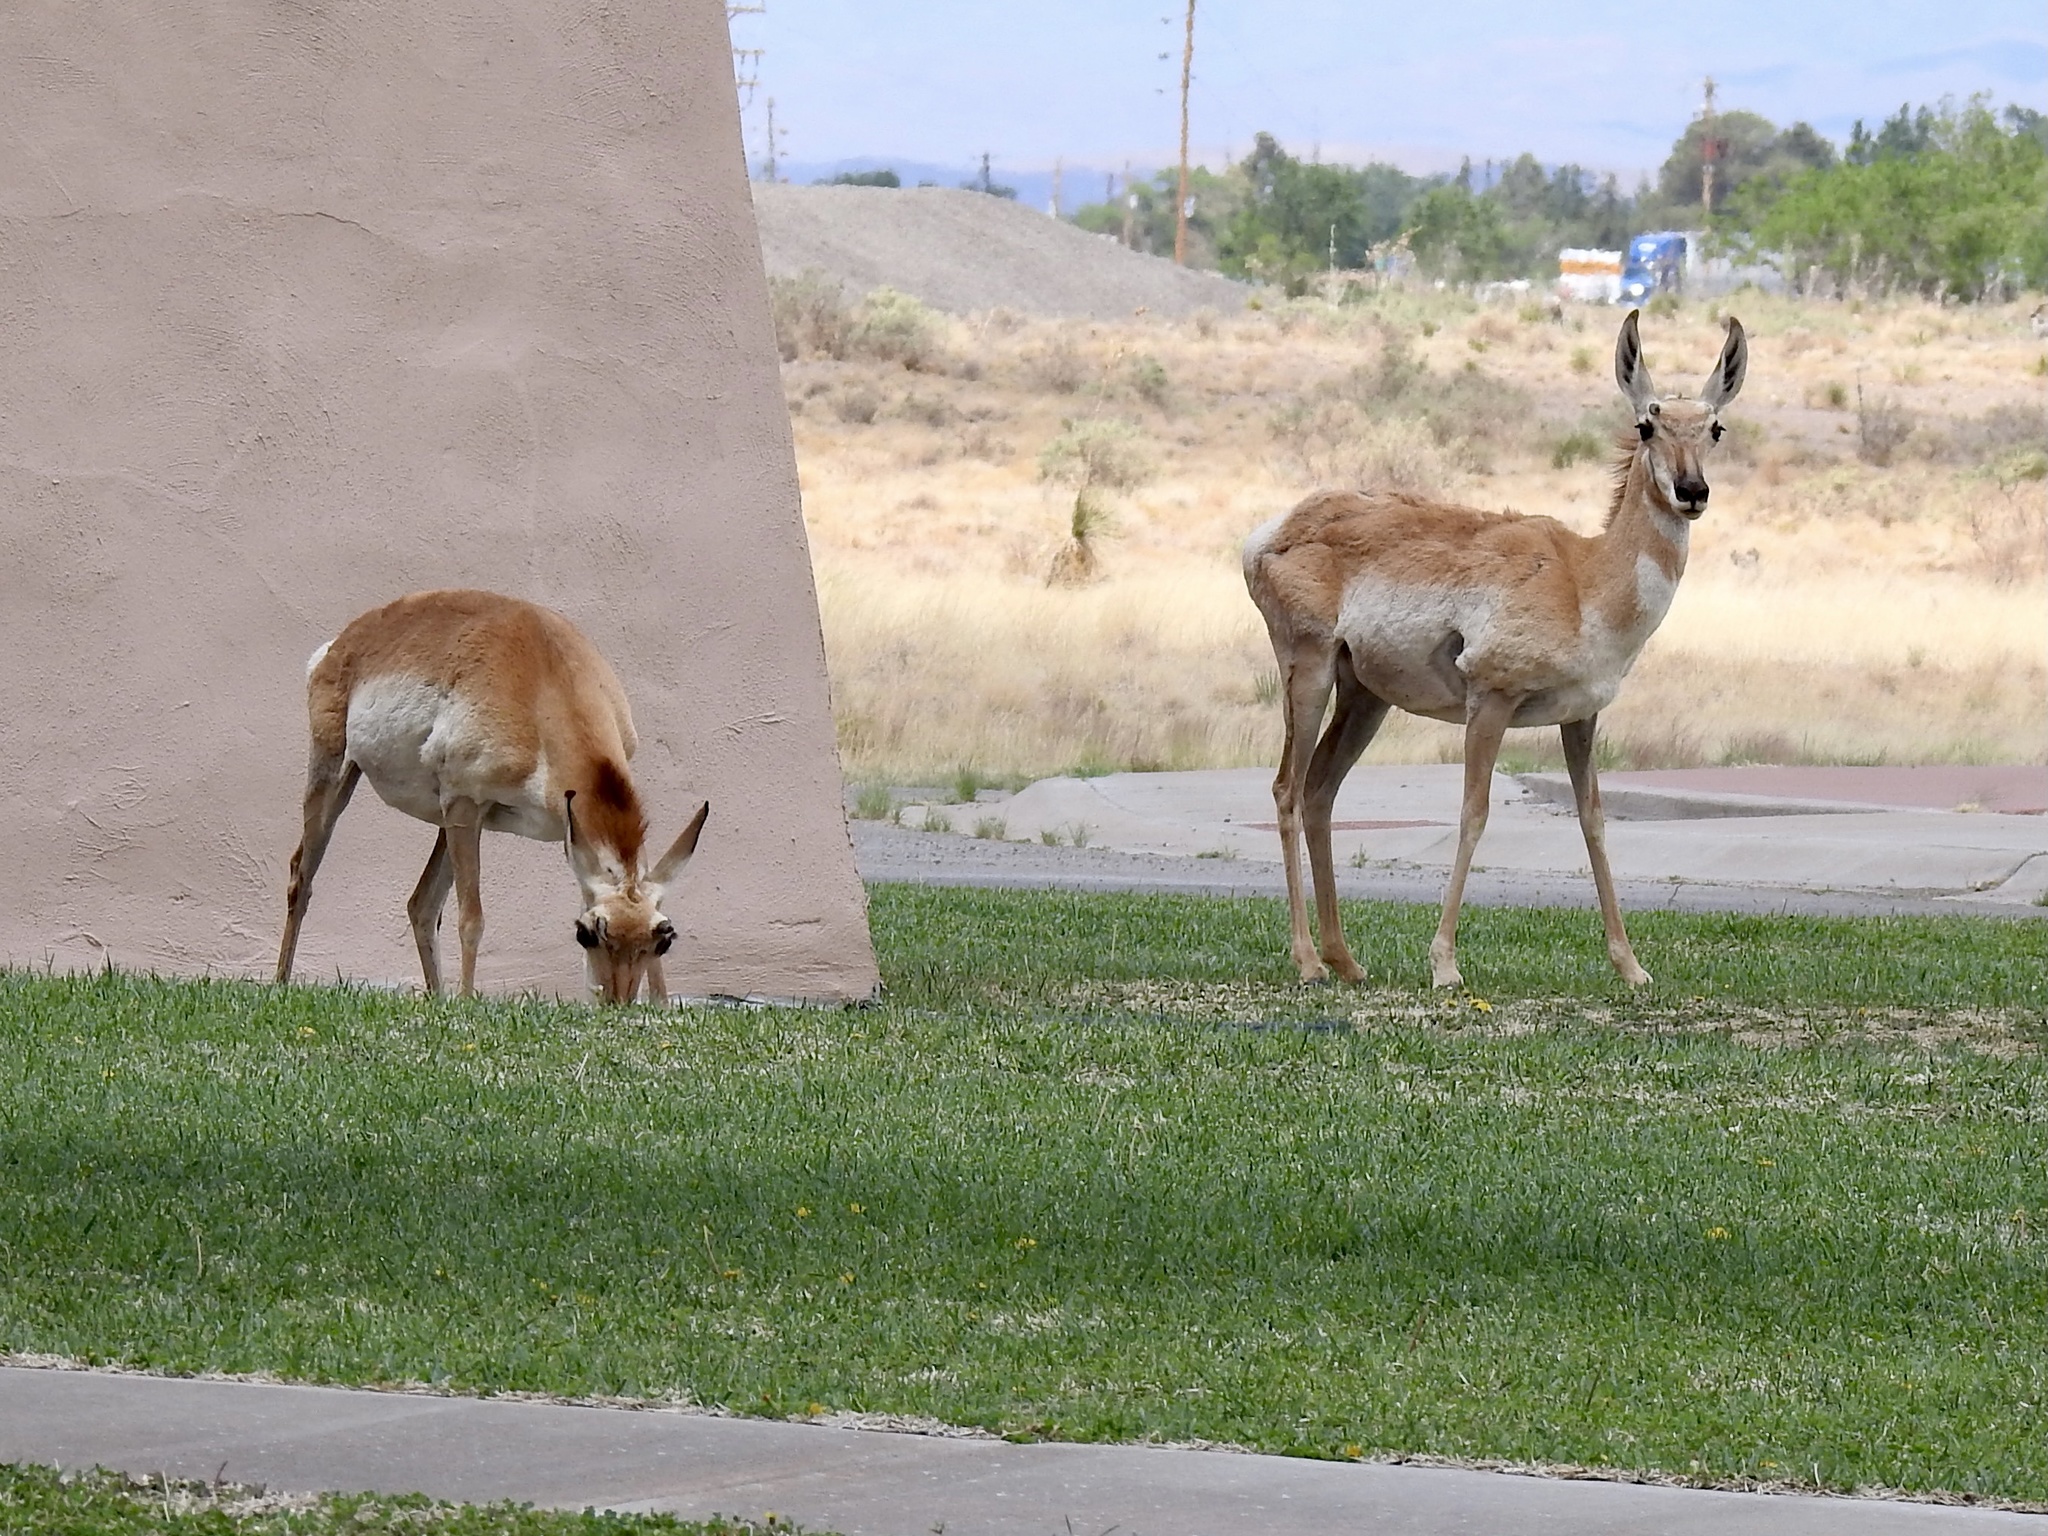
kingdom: Animalia
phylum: Chordata
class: Mammalia
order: Artiodactyla
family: Antilocapridae
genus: Antilocapra
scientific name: Antilocapra americana
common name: Pronghorn
